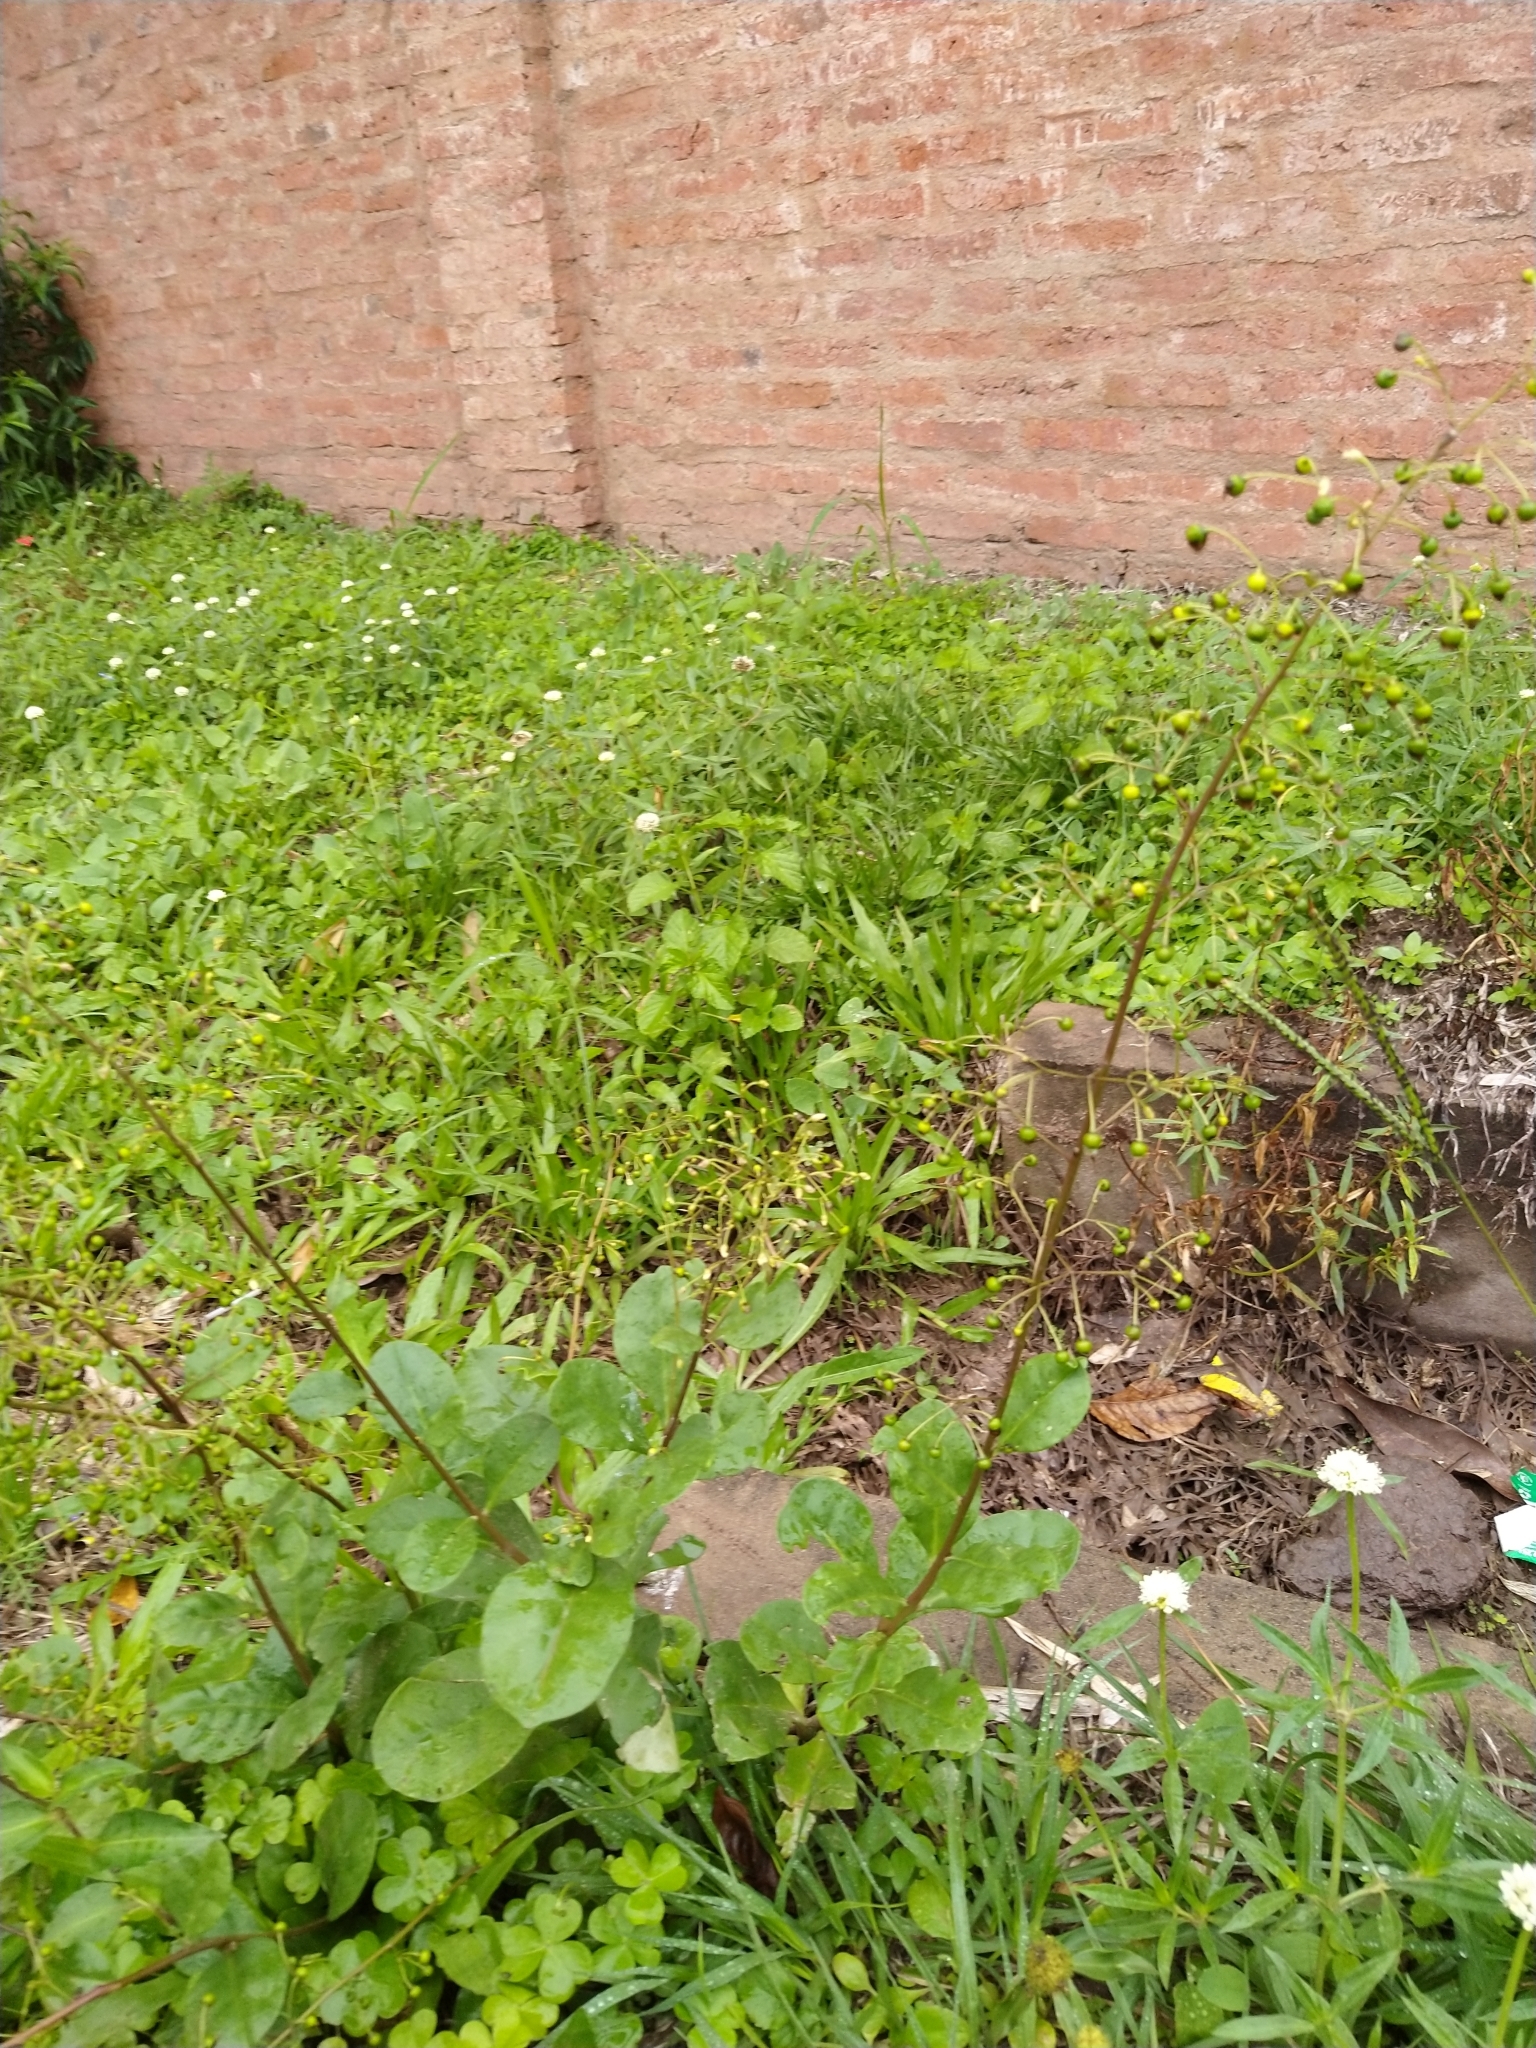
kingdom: Plantae
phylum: Tracheophyta
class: Magnoliopsida
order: Caryophyllales
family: Talinaceae
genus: Talinum
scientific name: Talinum paniculatum
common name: Jewels of opar
